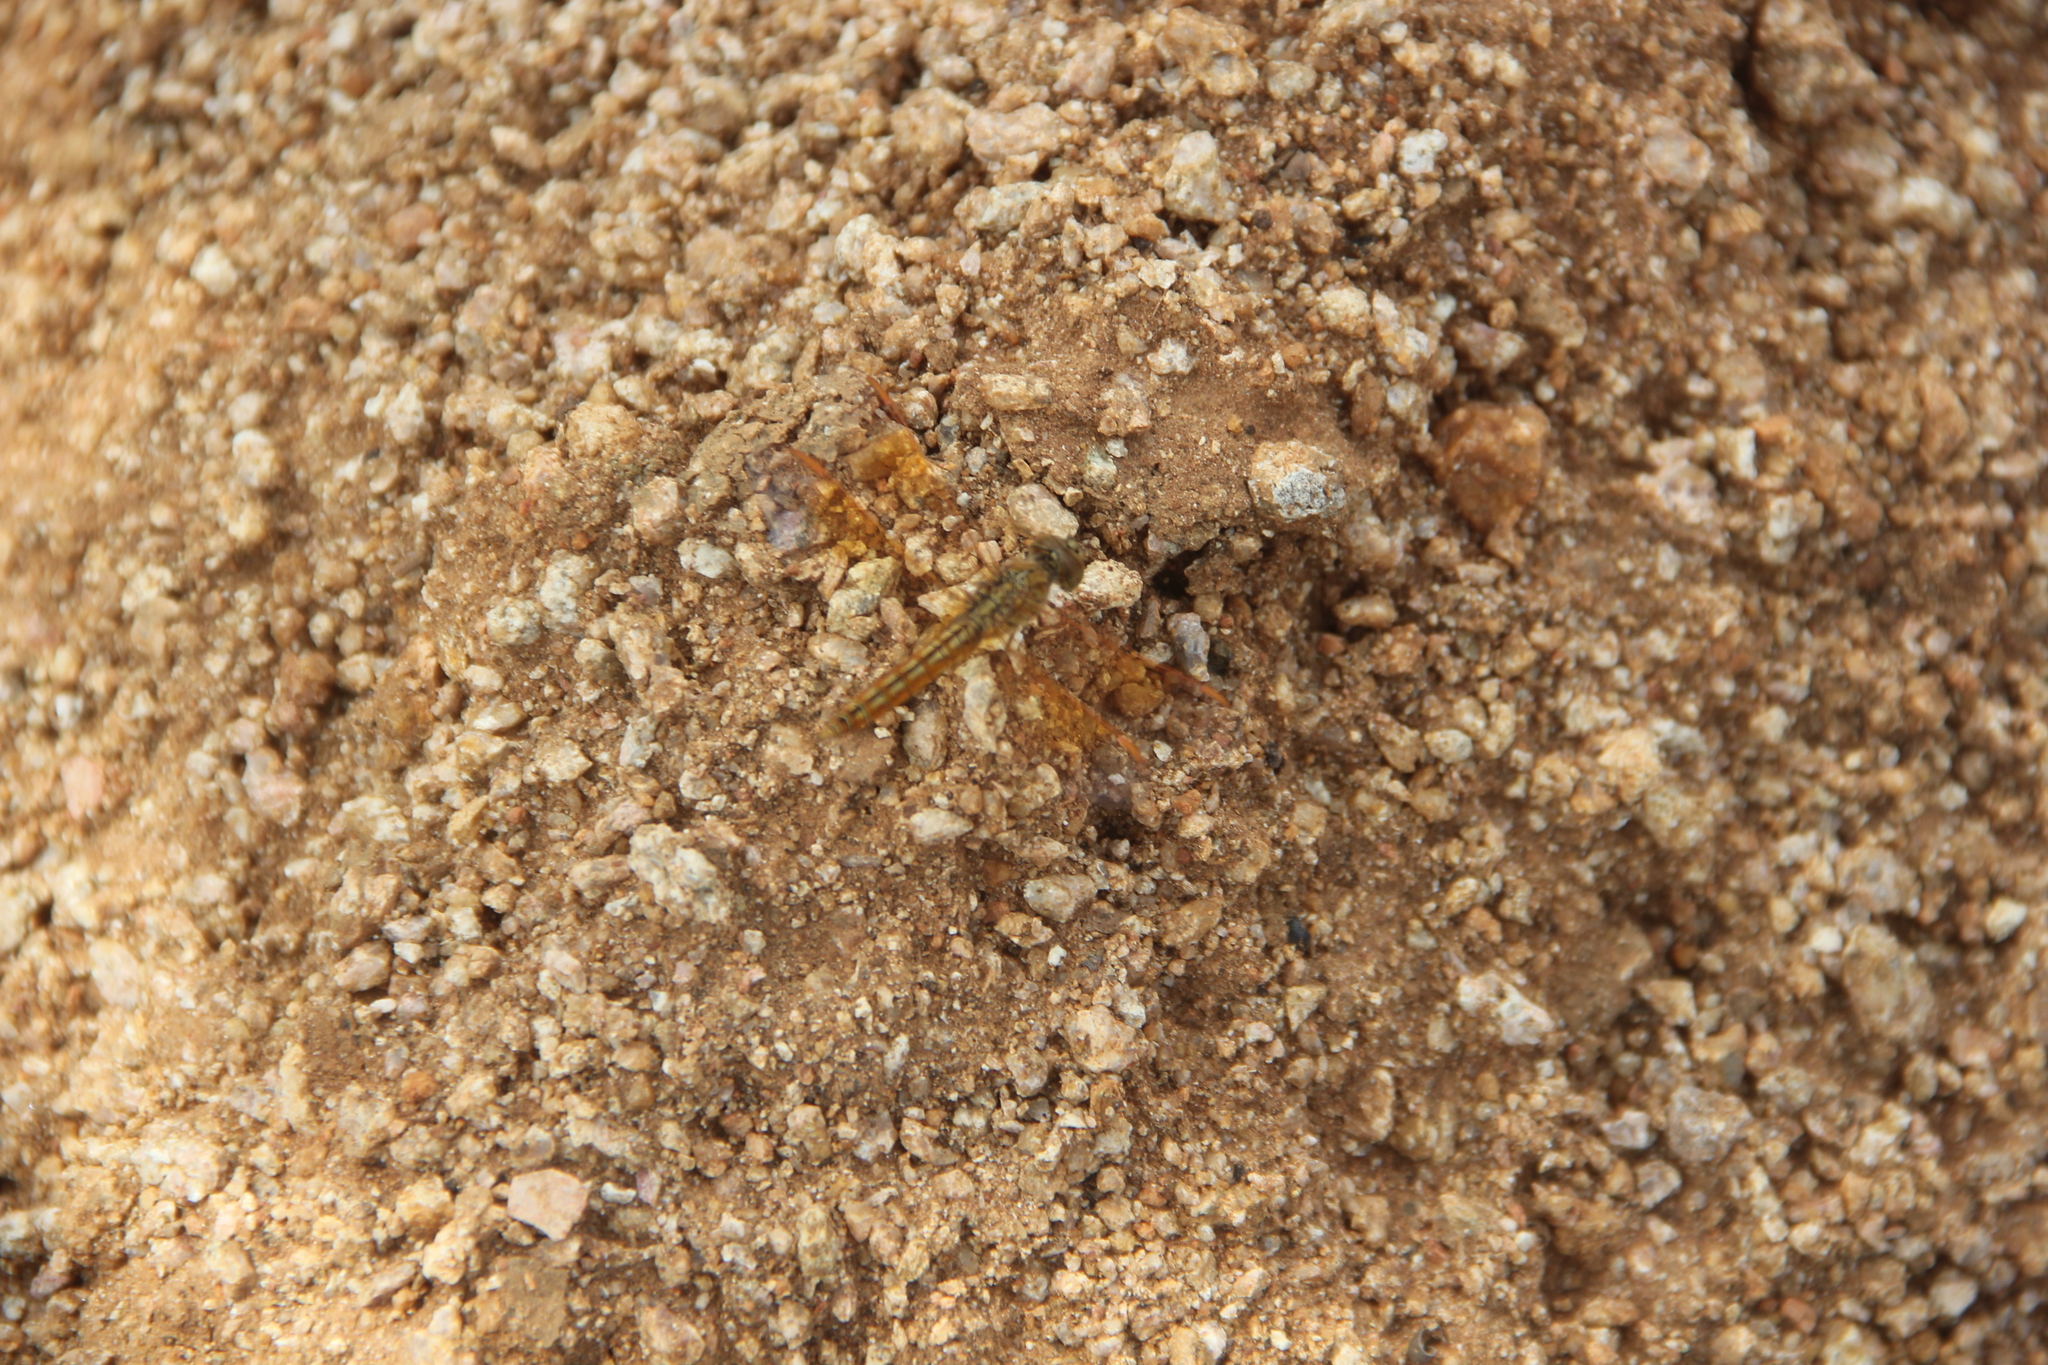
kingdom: Animalia
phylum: Arthropoda
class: Insecta
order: Odonata
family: Libellulidae
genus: Brachythemis
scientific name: Brachythemis contaminata
